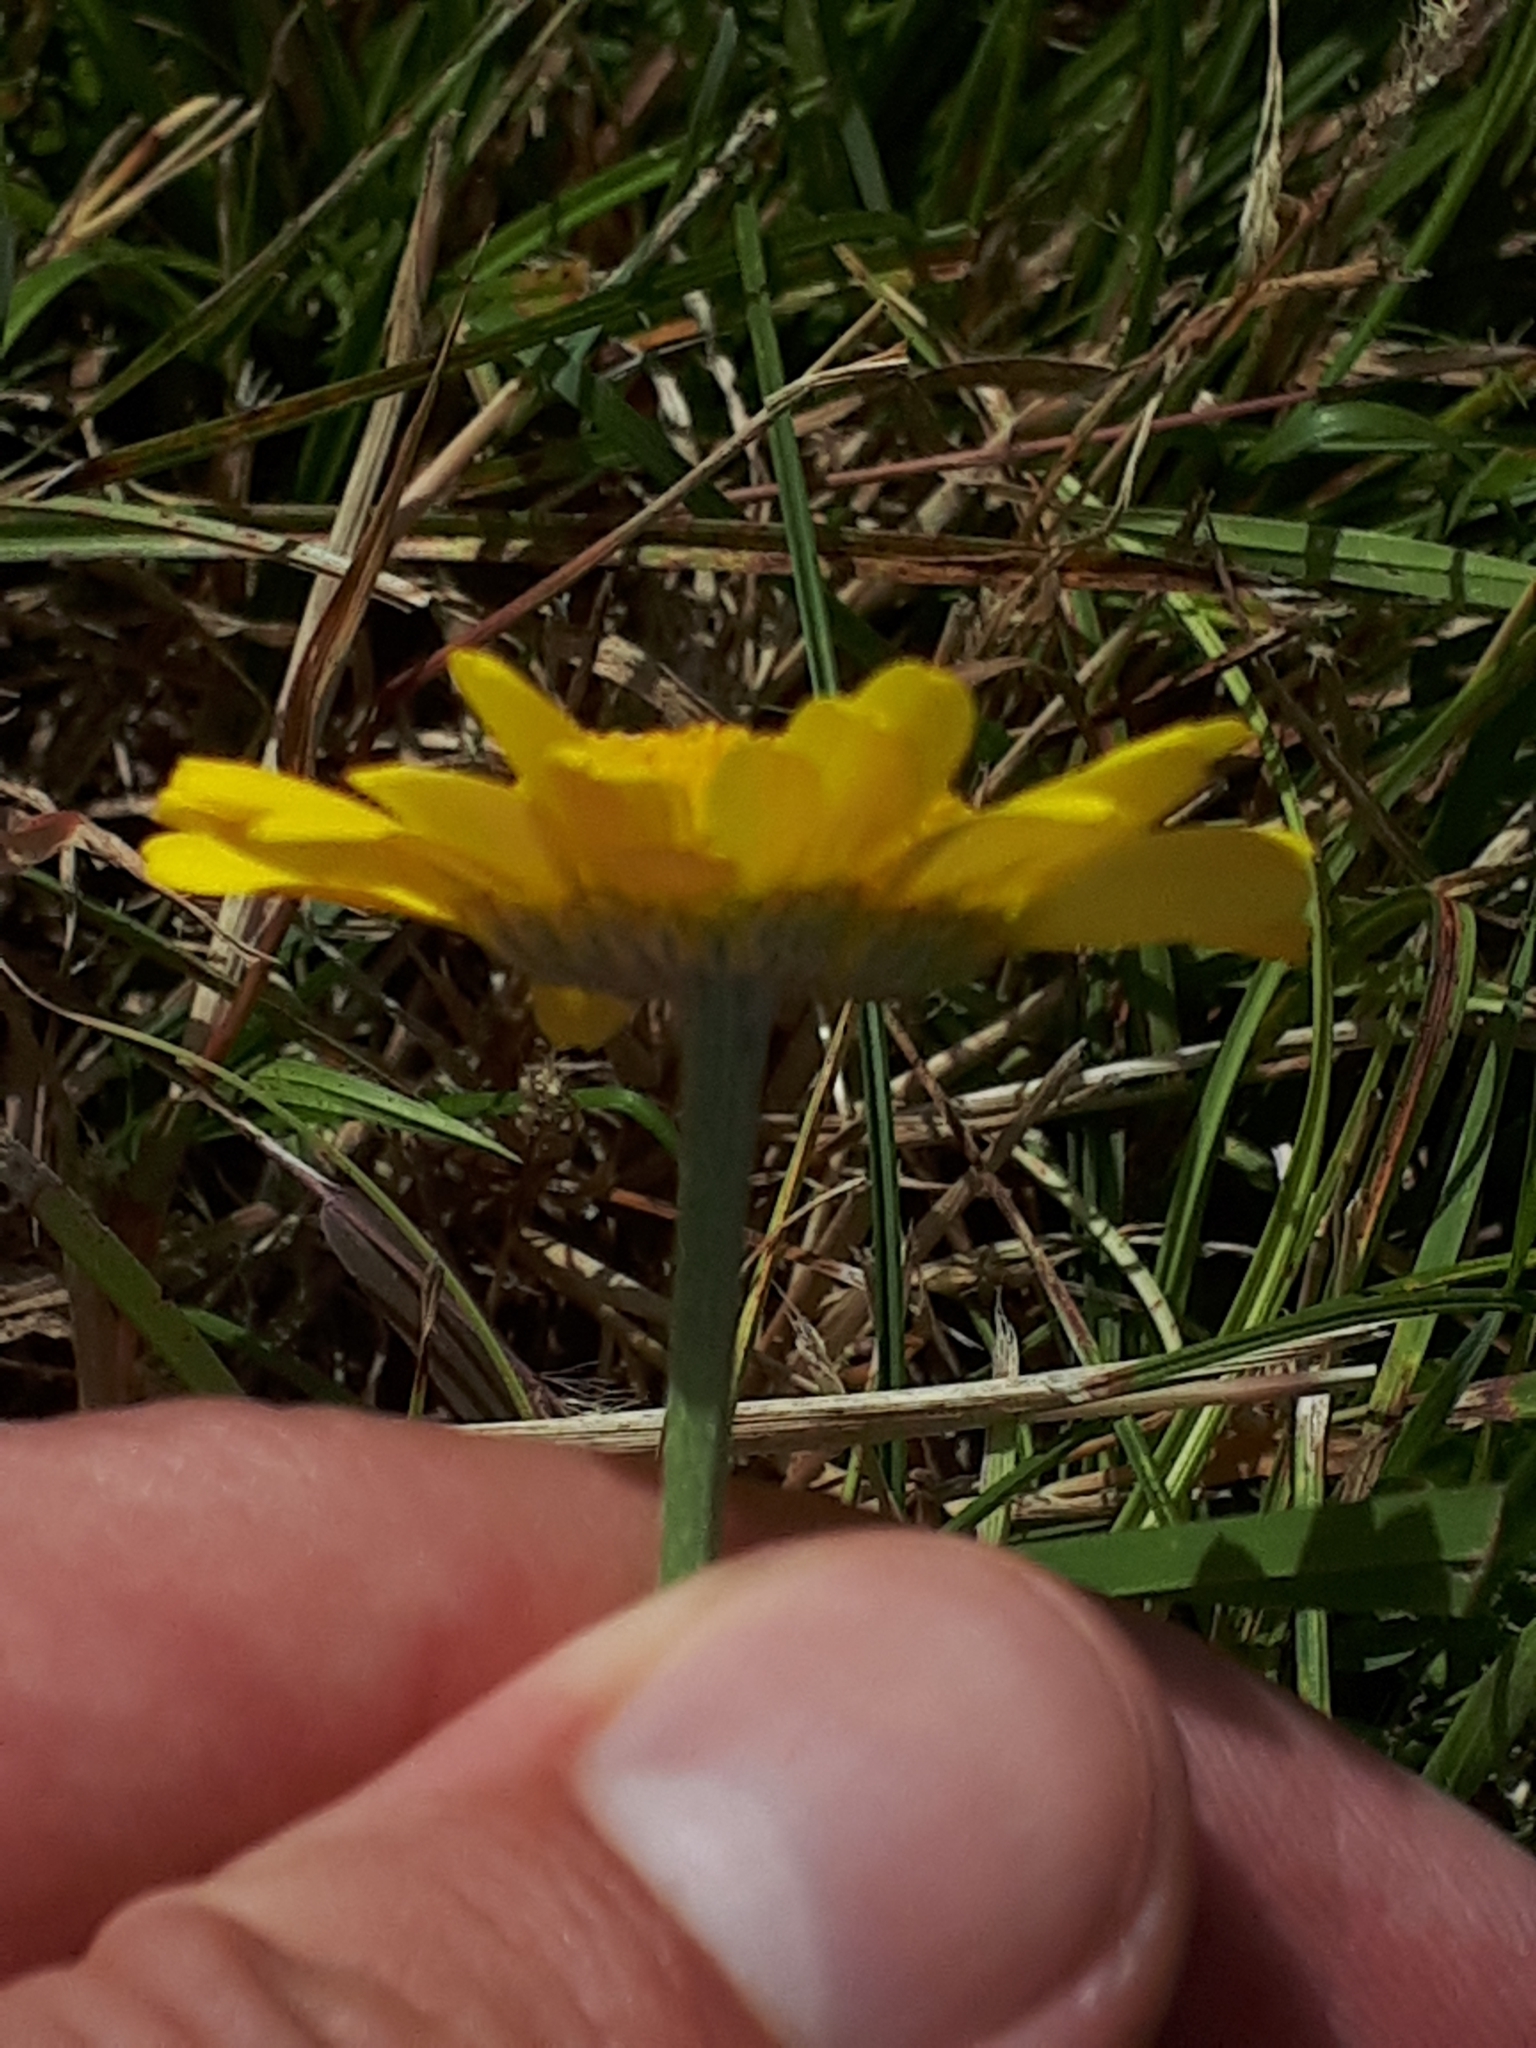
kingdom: Plantae
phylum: Tracheophyta
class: Magnoliopsida
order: Asterales
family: Asteraceae
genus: Cota
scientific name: Cota tinctoria
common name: Golden chamomile
